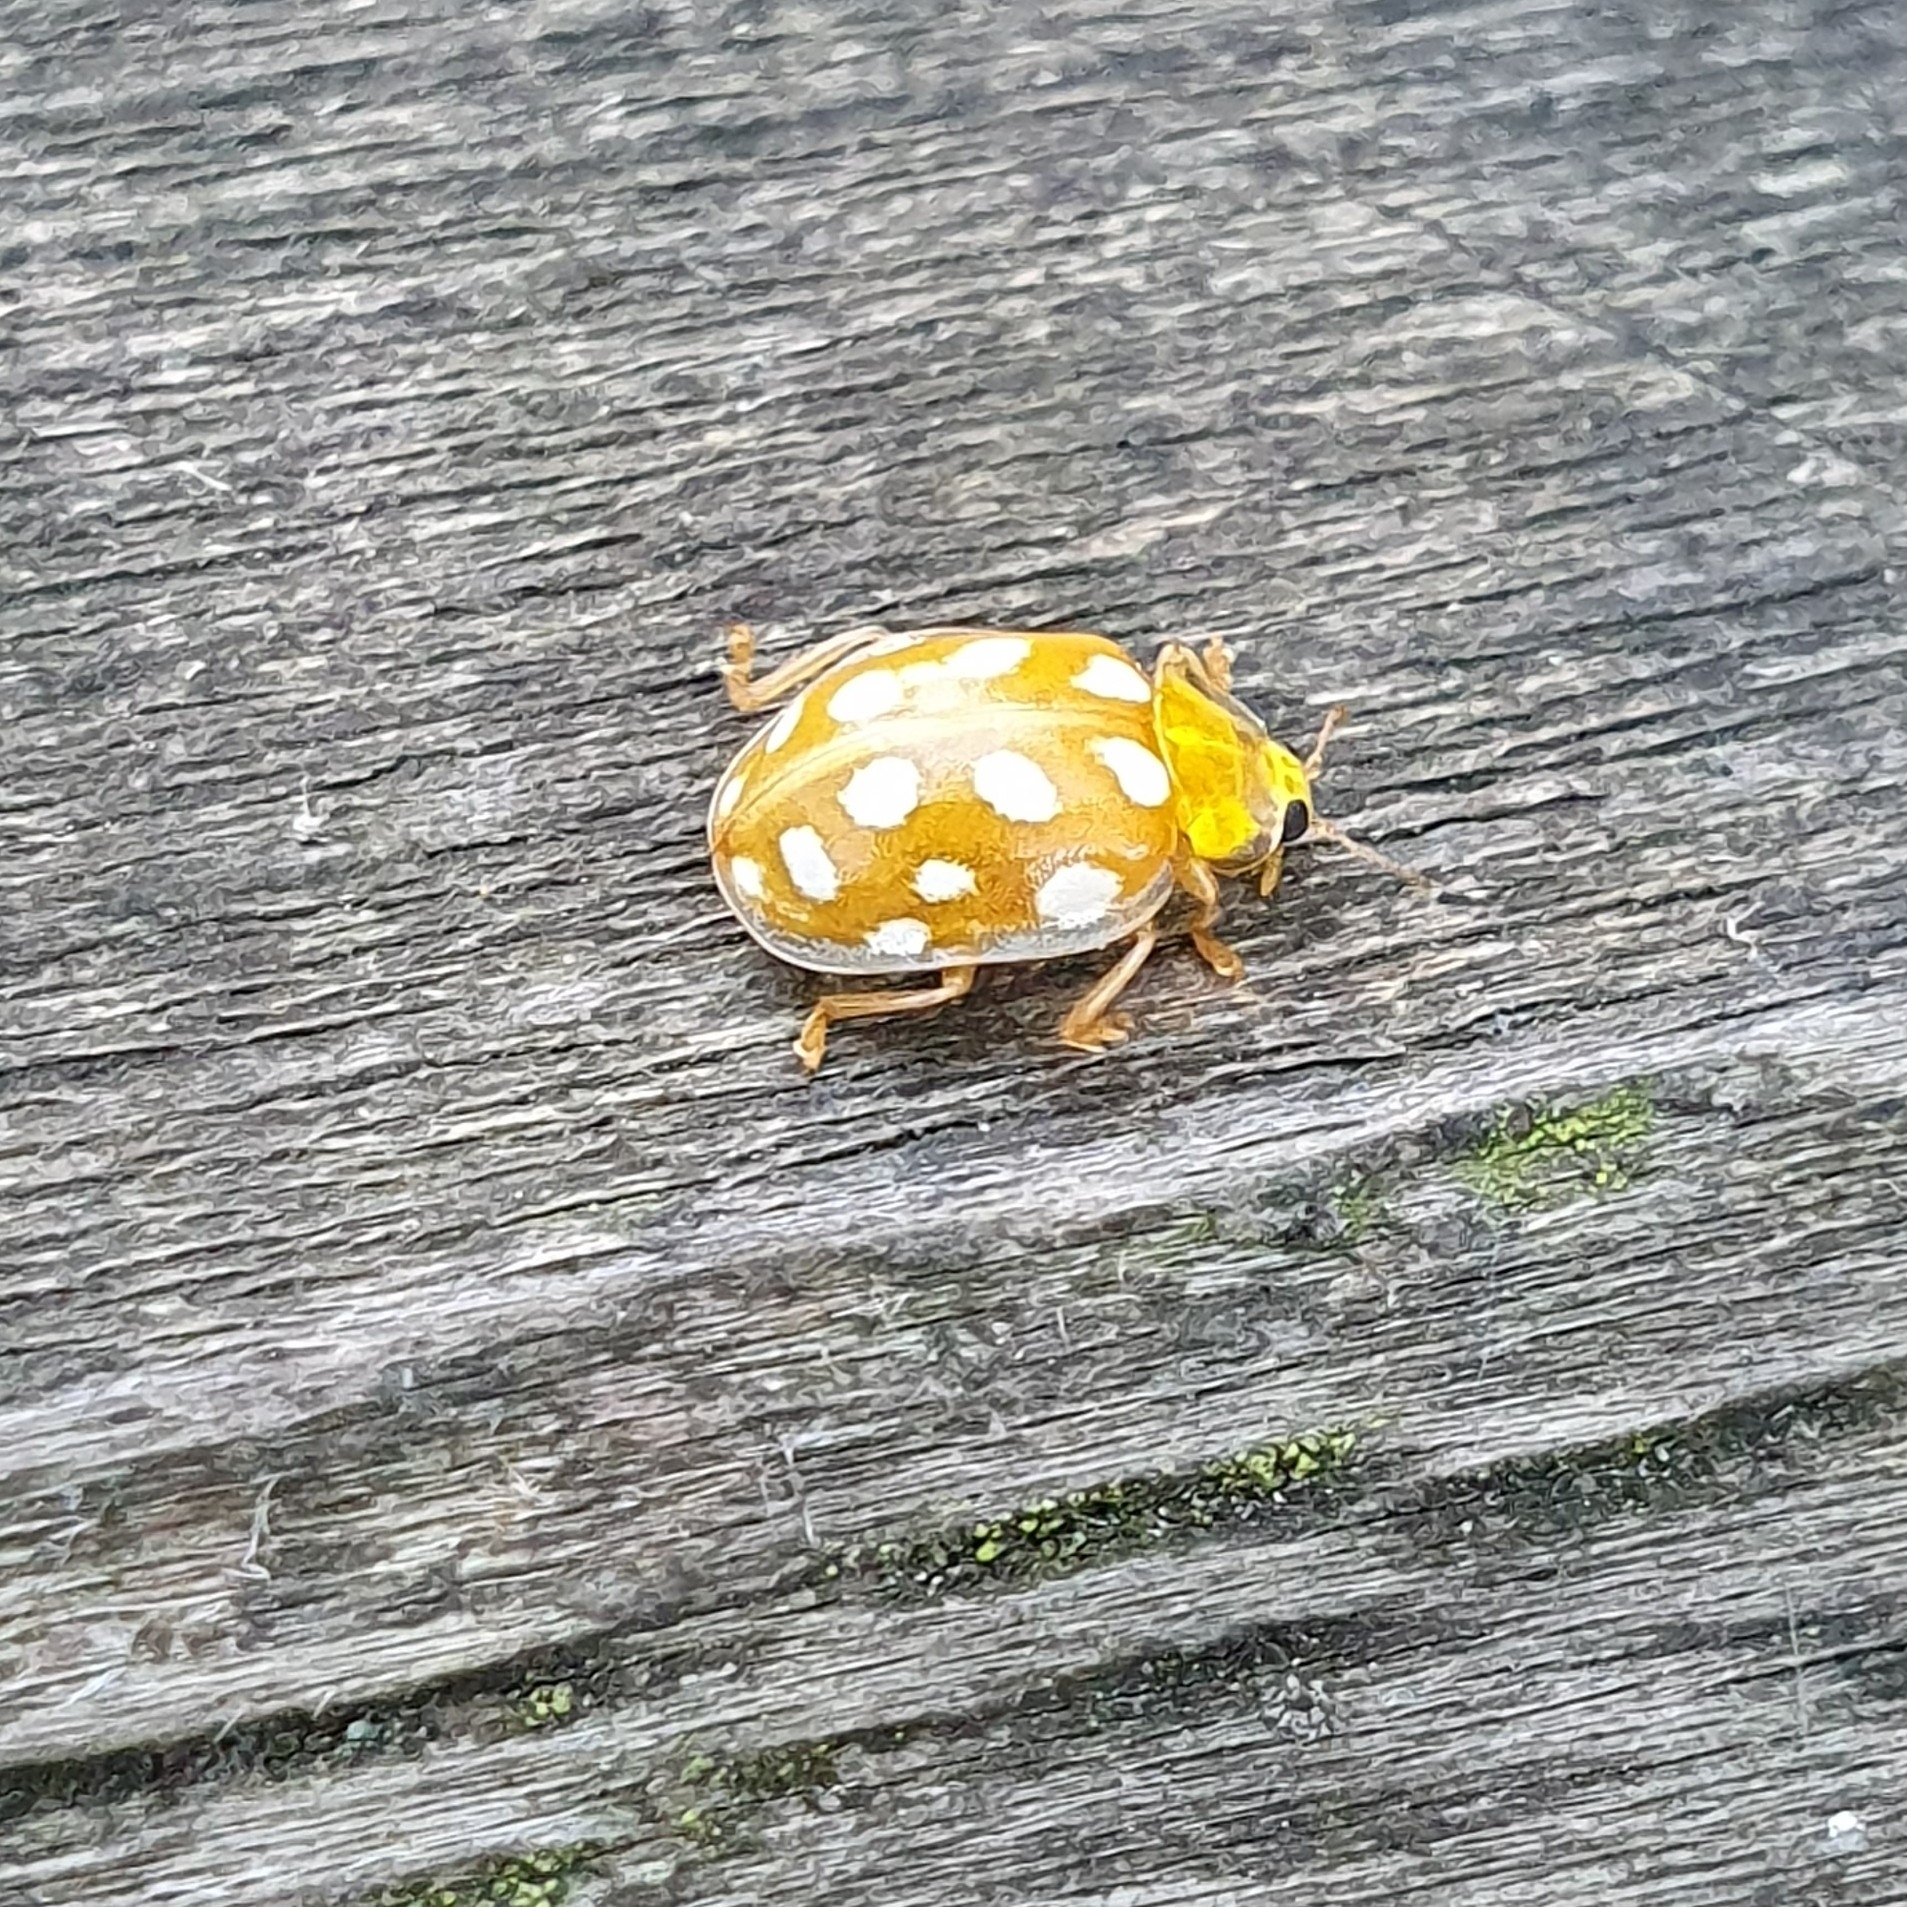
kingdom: Animalia
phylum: Arthropoda
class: Insecta
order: Coleoptera
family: Coccinellidae
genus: Halyzia
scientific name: Halyzia sedecimguttata
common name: Orange ladybird
